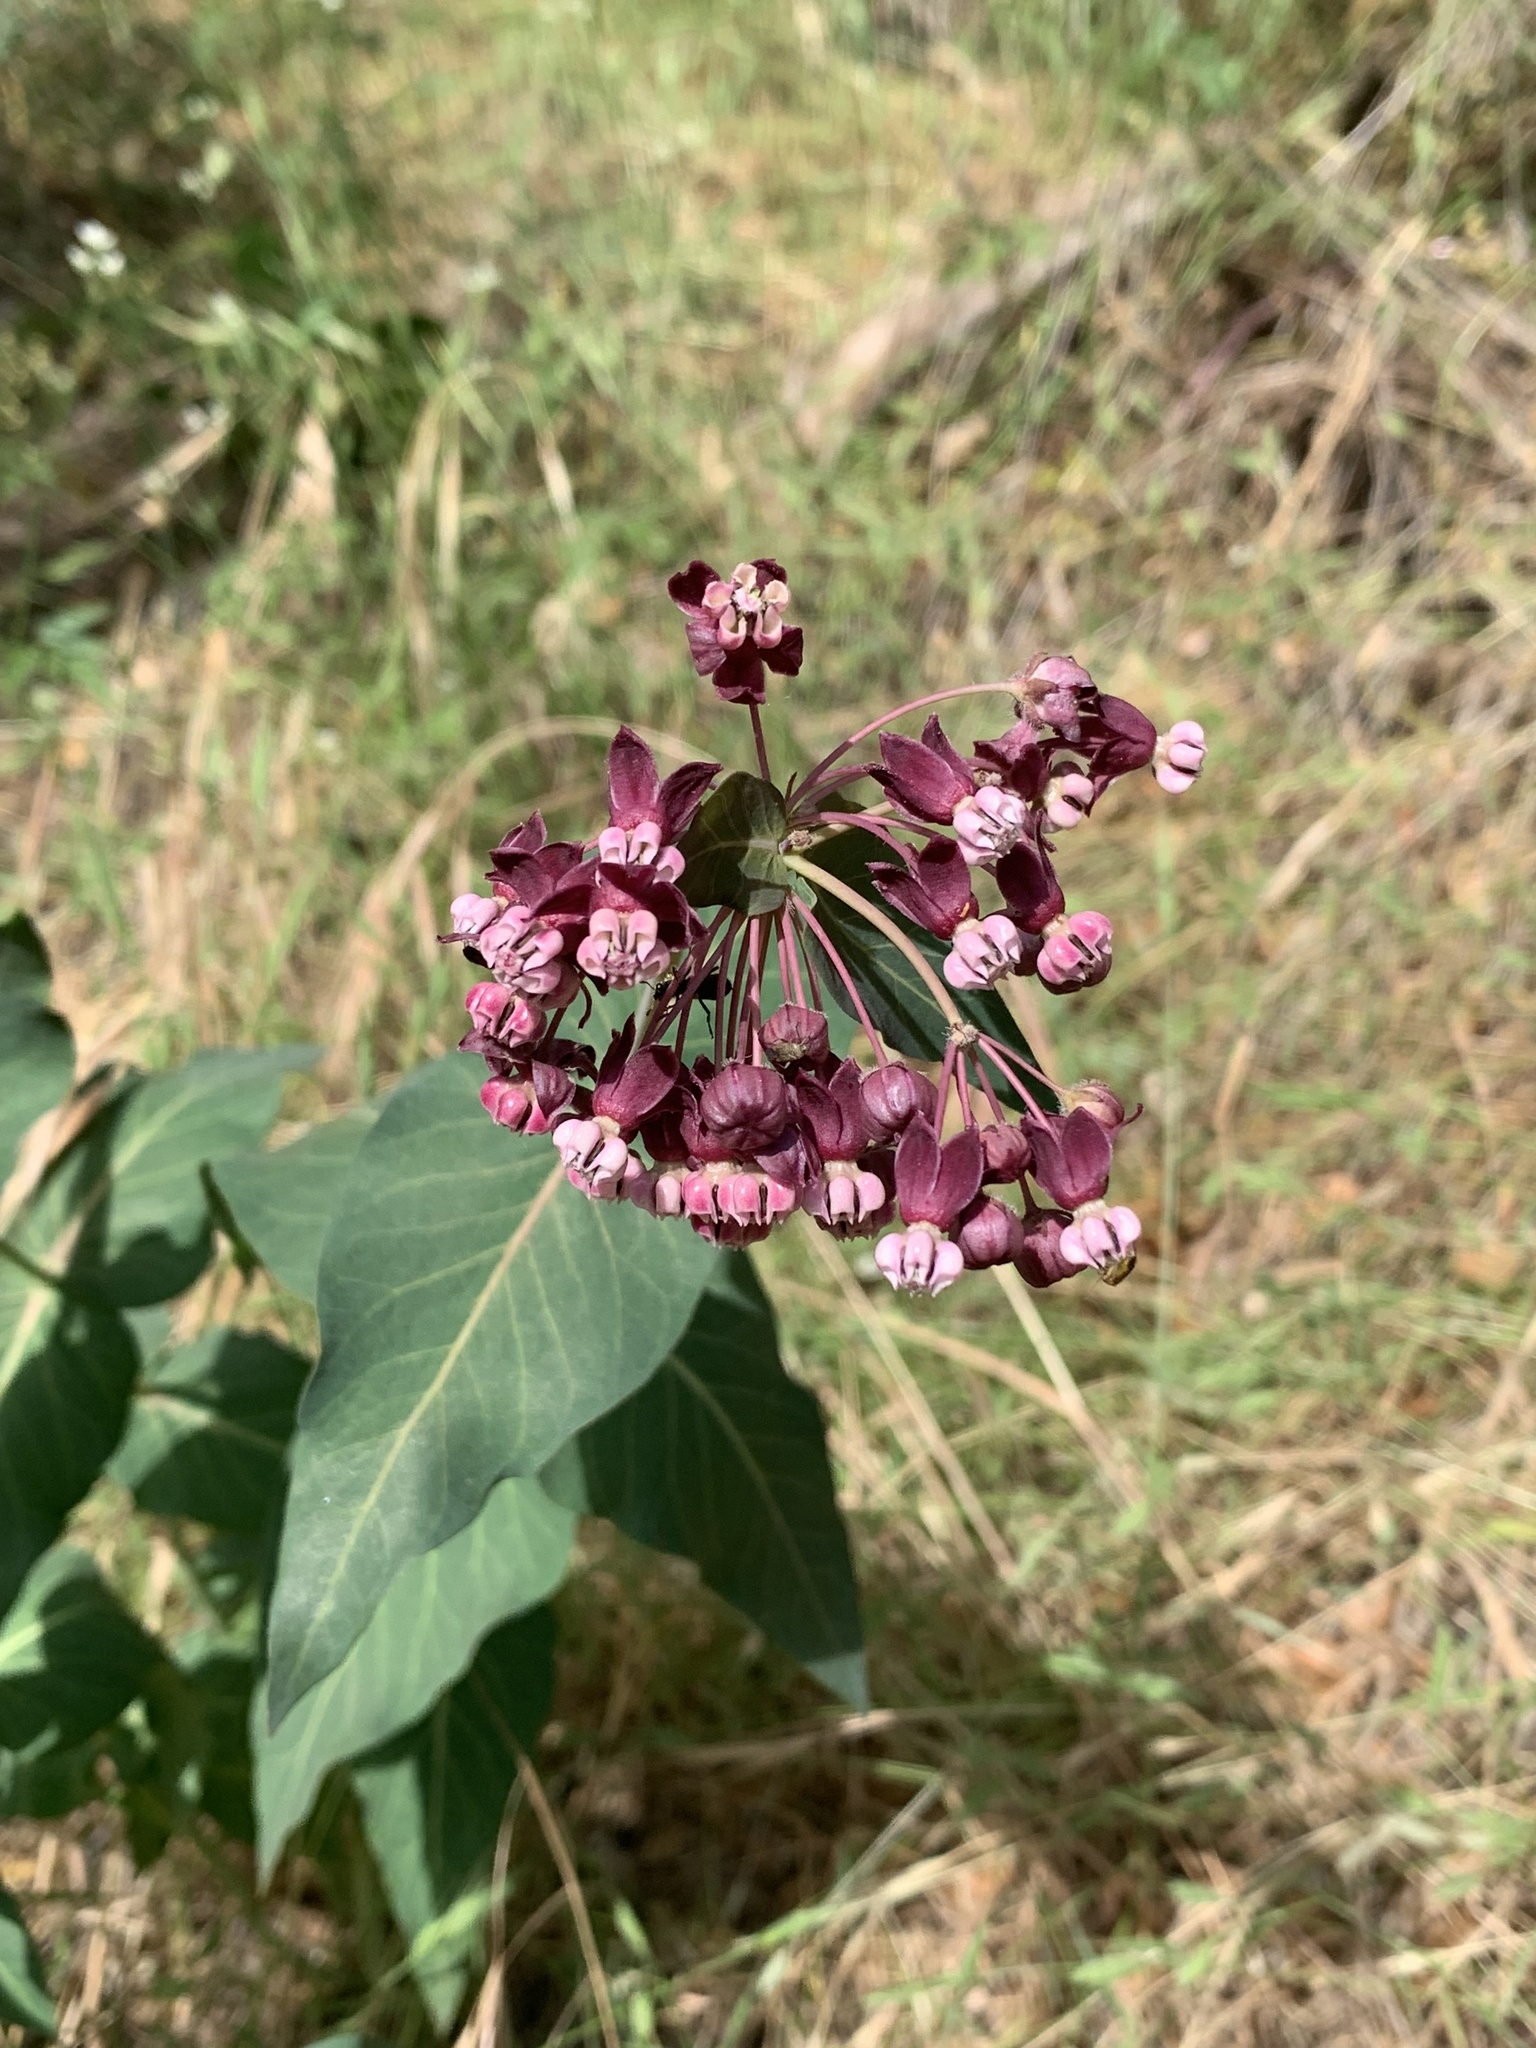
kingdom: Plantae
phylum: Tracheophyta
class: Magnoliopsida
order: Gentianales
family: Apocynaceae
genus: Asclepias
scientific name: Asclepias cordifolia
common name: Purple milkweed
